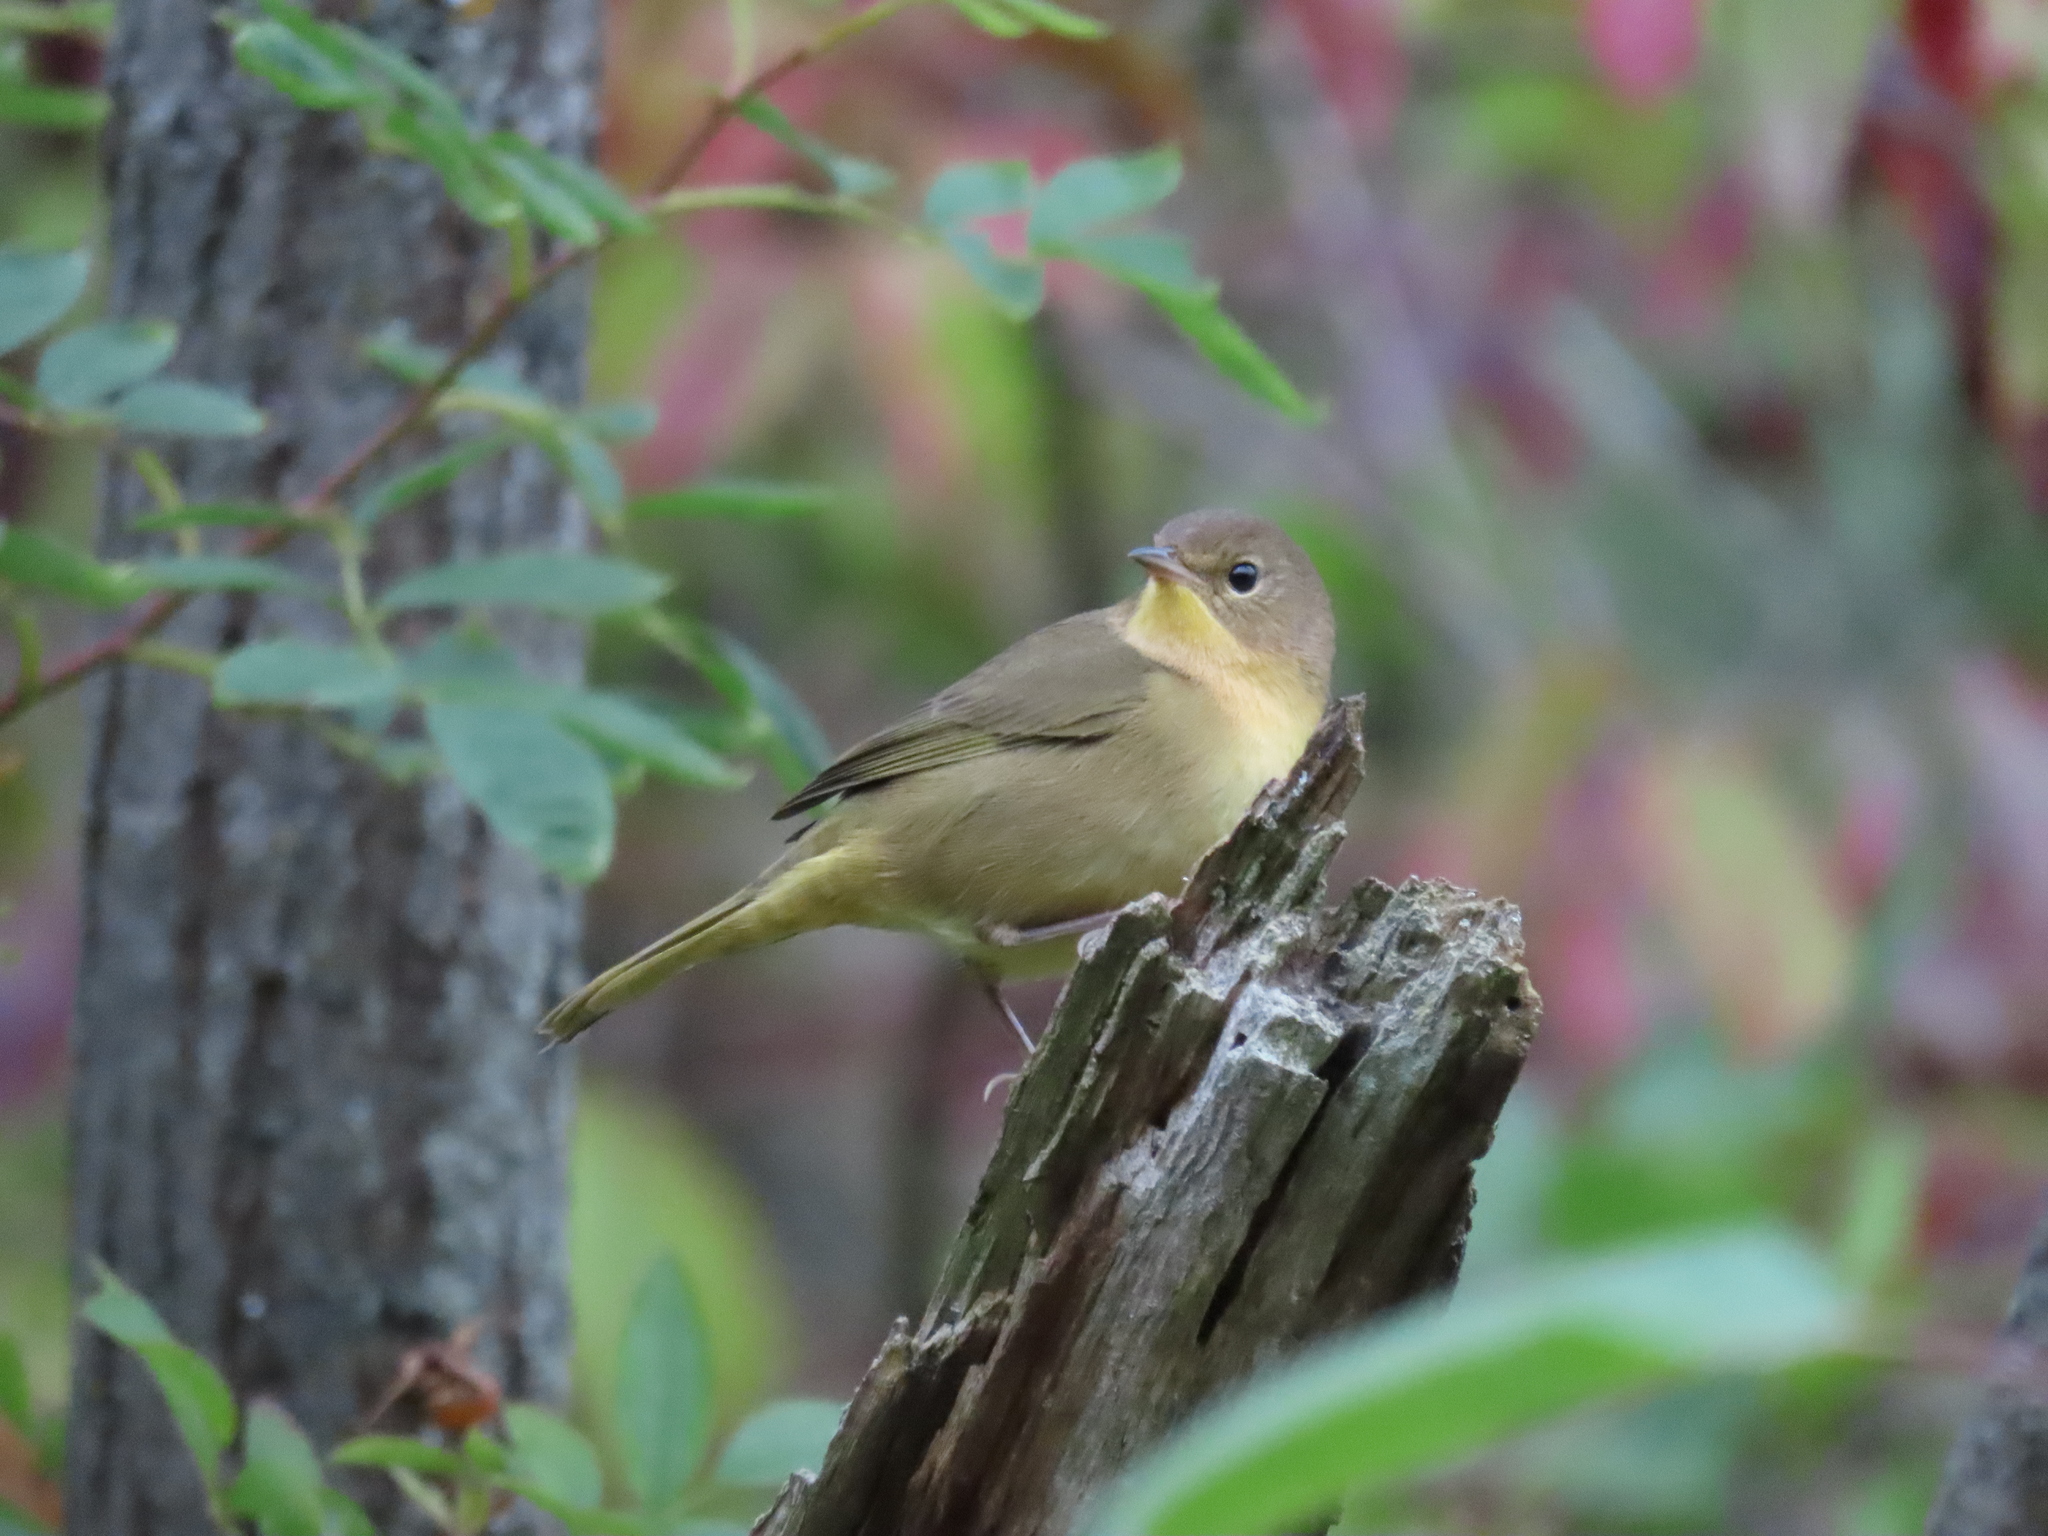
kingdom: Animalia
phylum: Chordata
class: Aves
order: Passeriformes
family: Parulidae
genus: Geothlypis
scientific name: Geothlypis trichas
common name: Common yellowthroat
